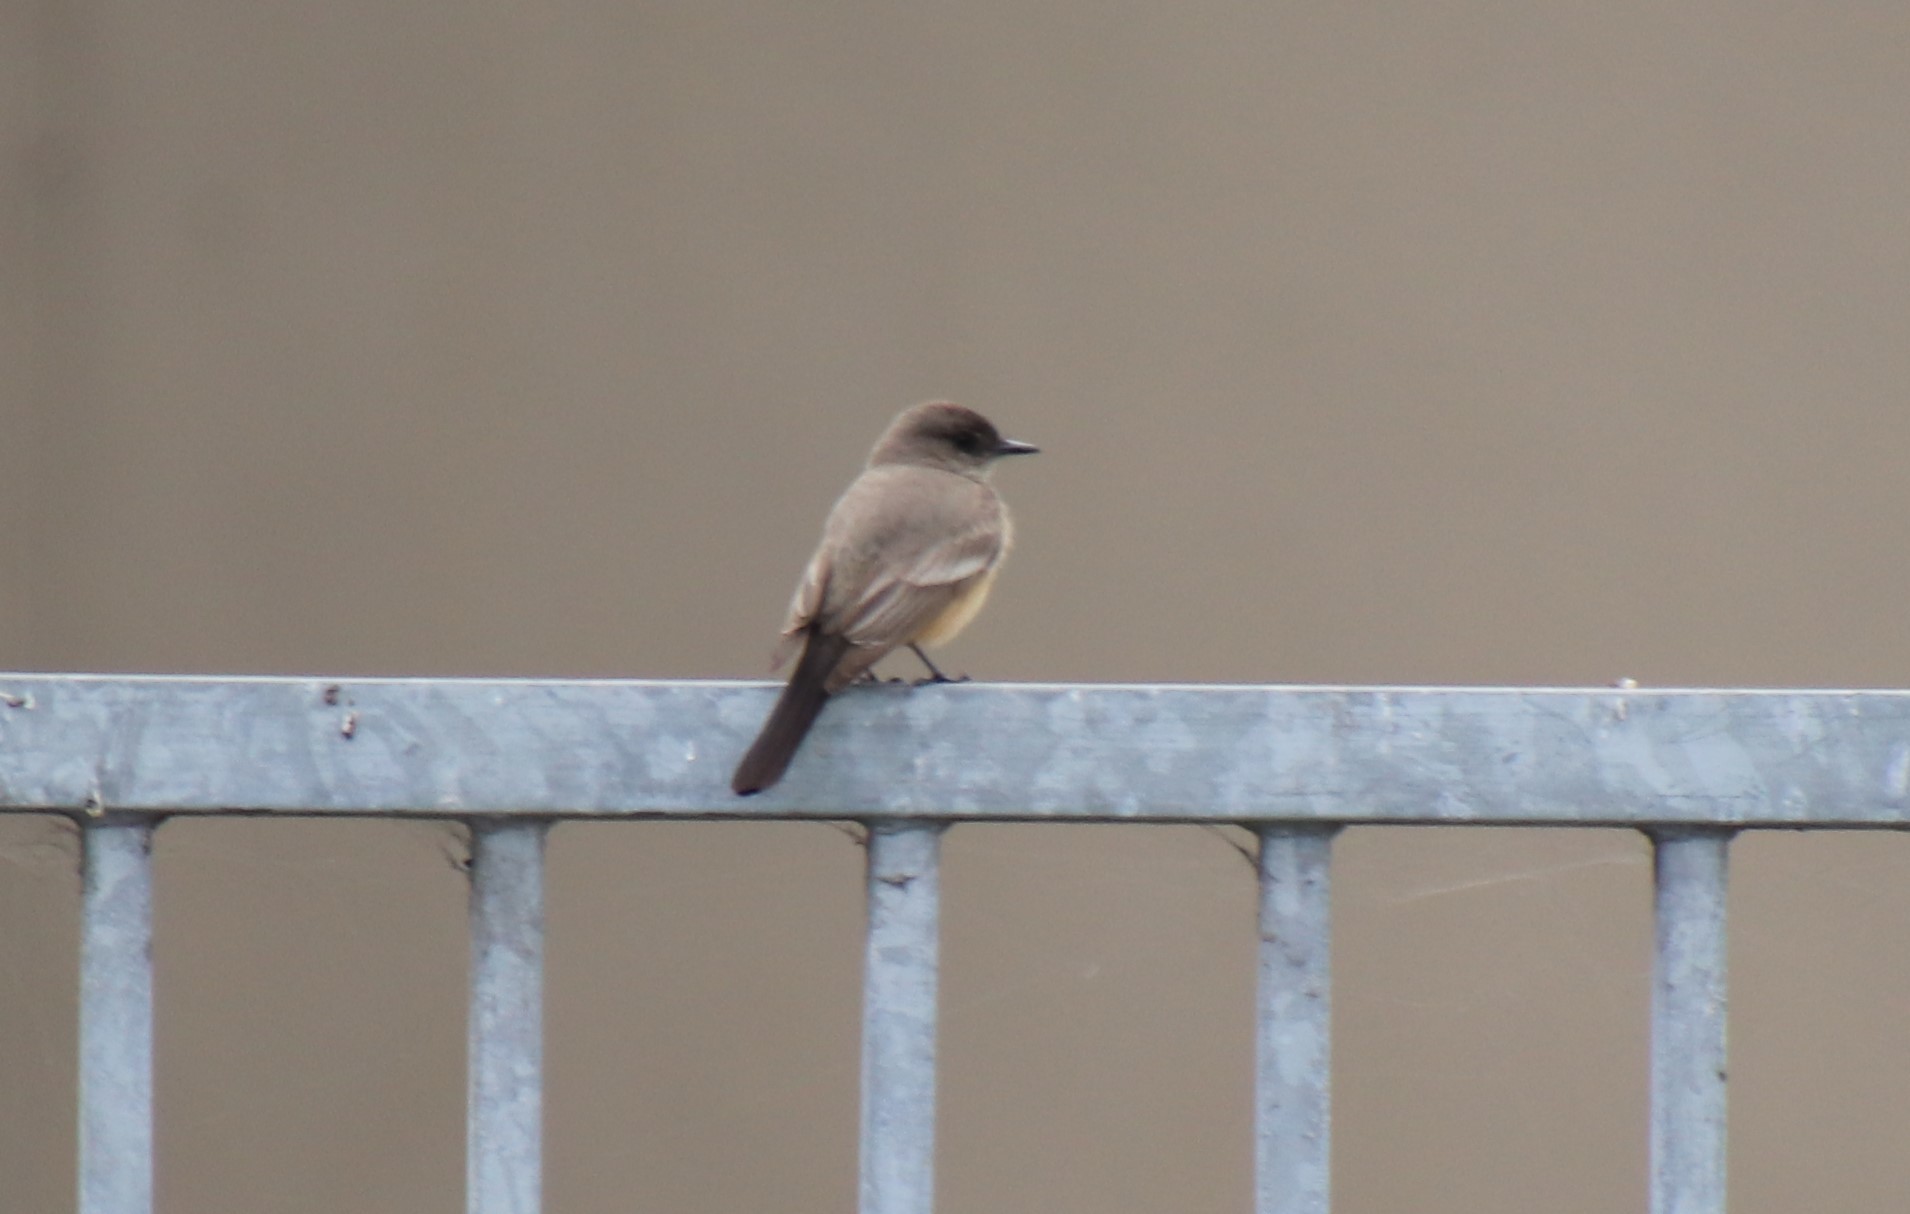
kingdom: Animalia
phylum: Chordata
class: Aves
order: Passeriformes
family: Tyrannidae
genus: Sayornis
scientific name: Sayornis saya
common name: Say's phoebe
